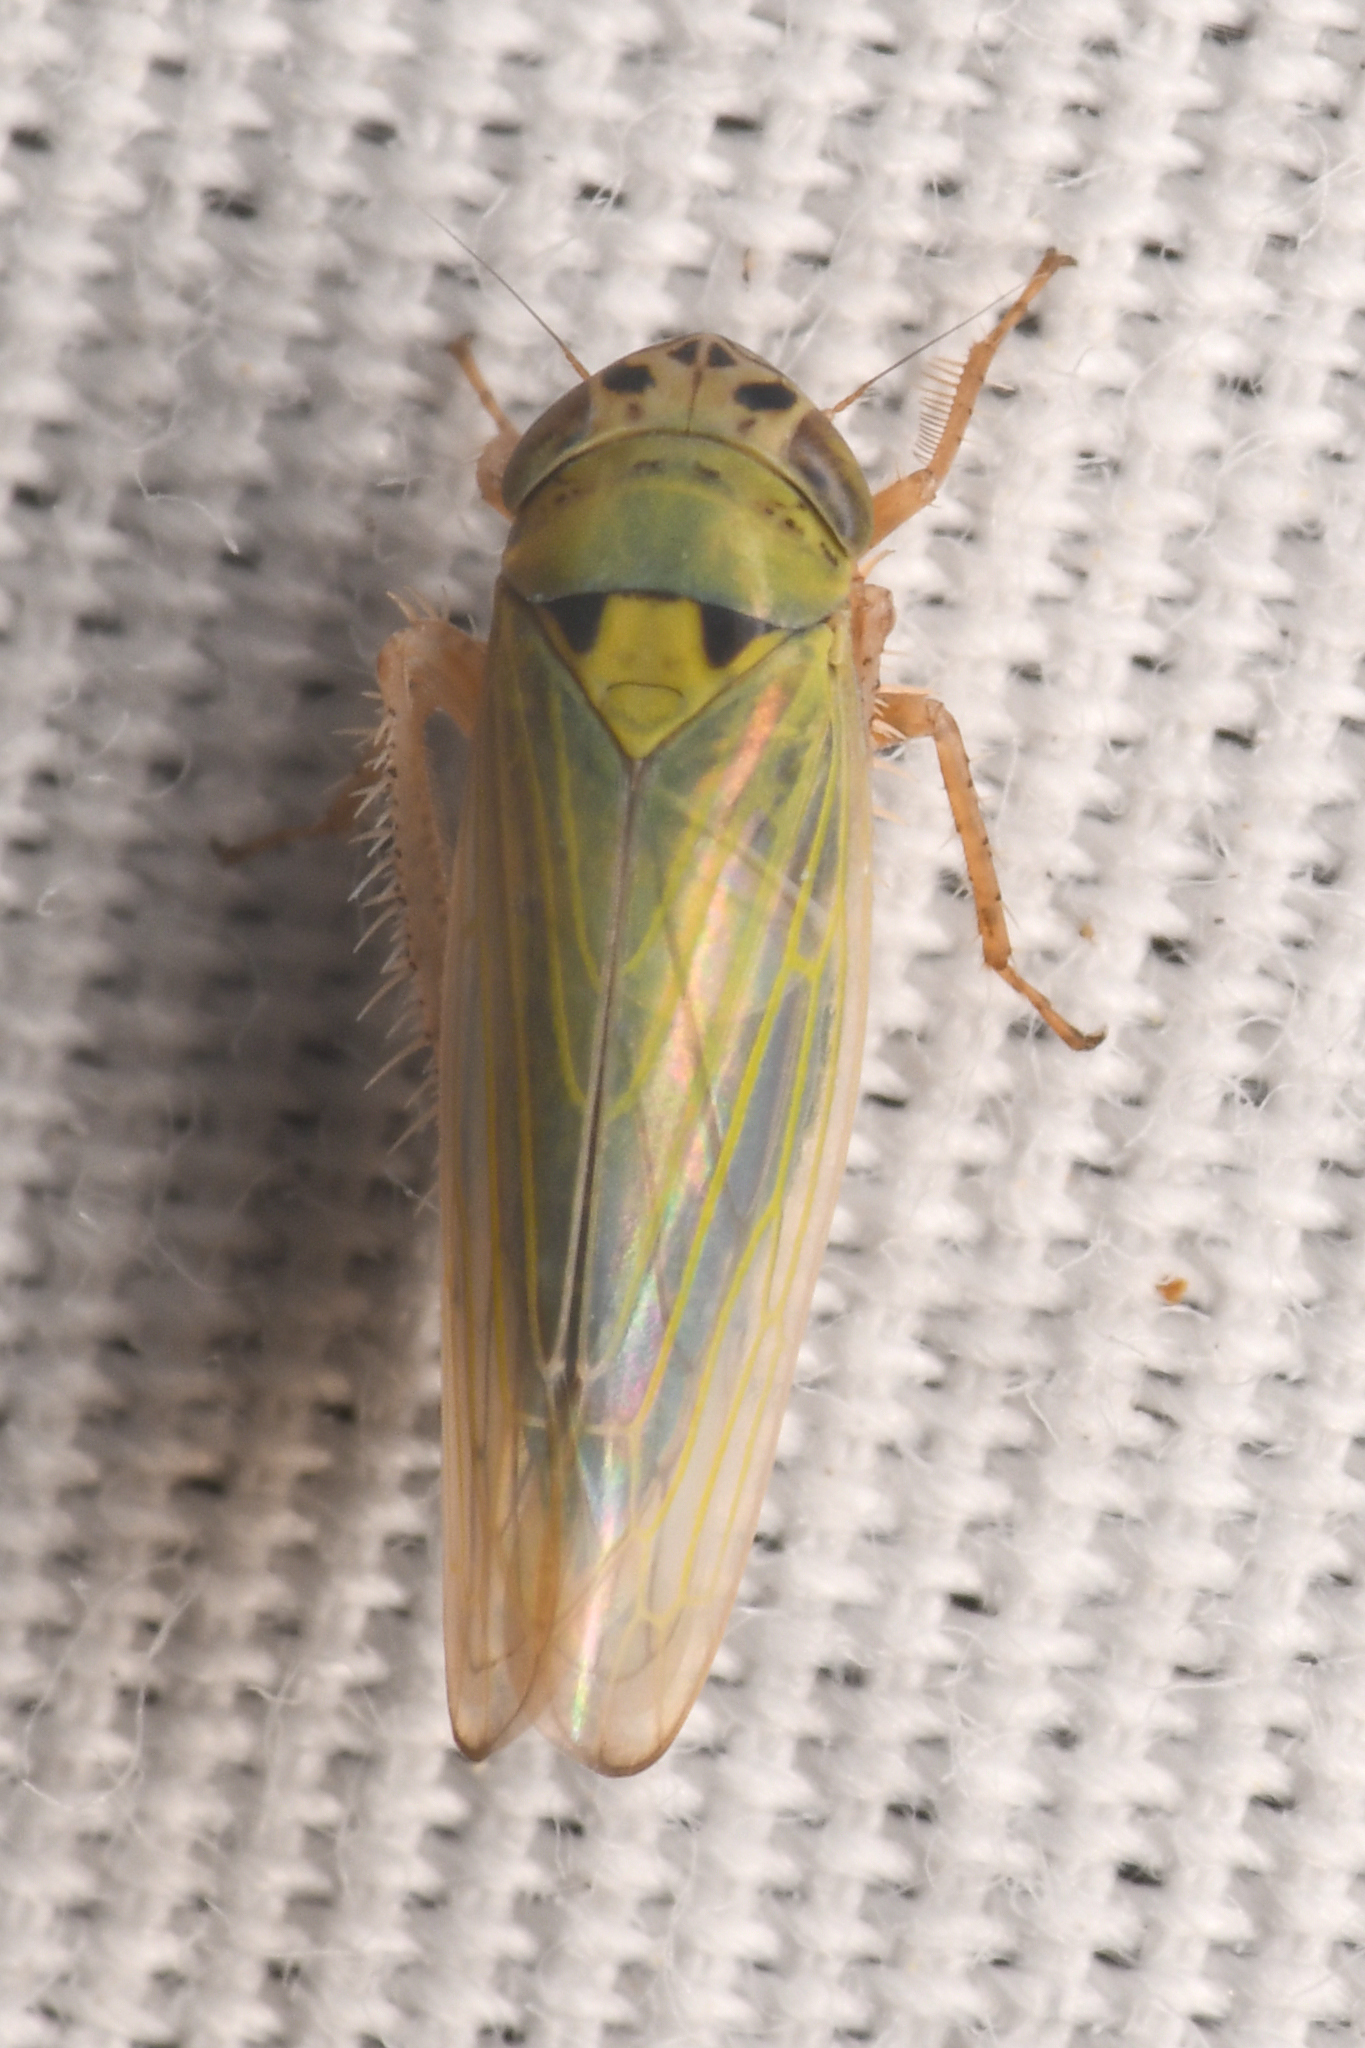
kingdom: Animalia
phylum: Arthropoda
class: Insecta
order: Hemiptera
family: Cicadellidae
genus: Gloridonus
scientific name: Gloridonus venditarius
